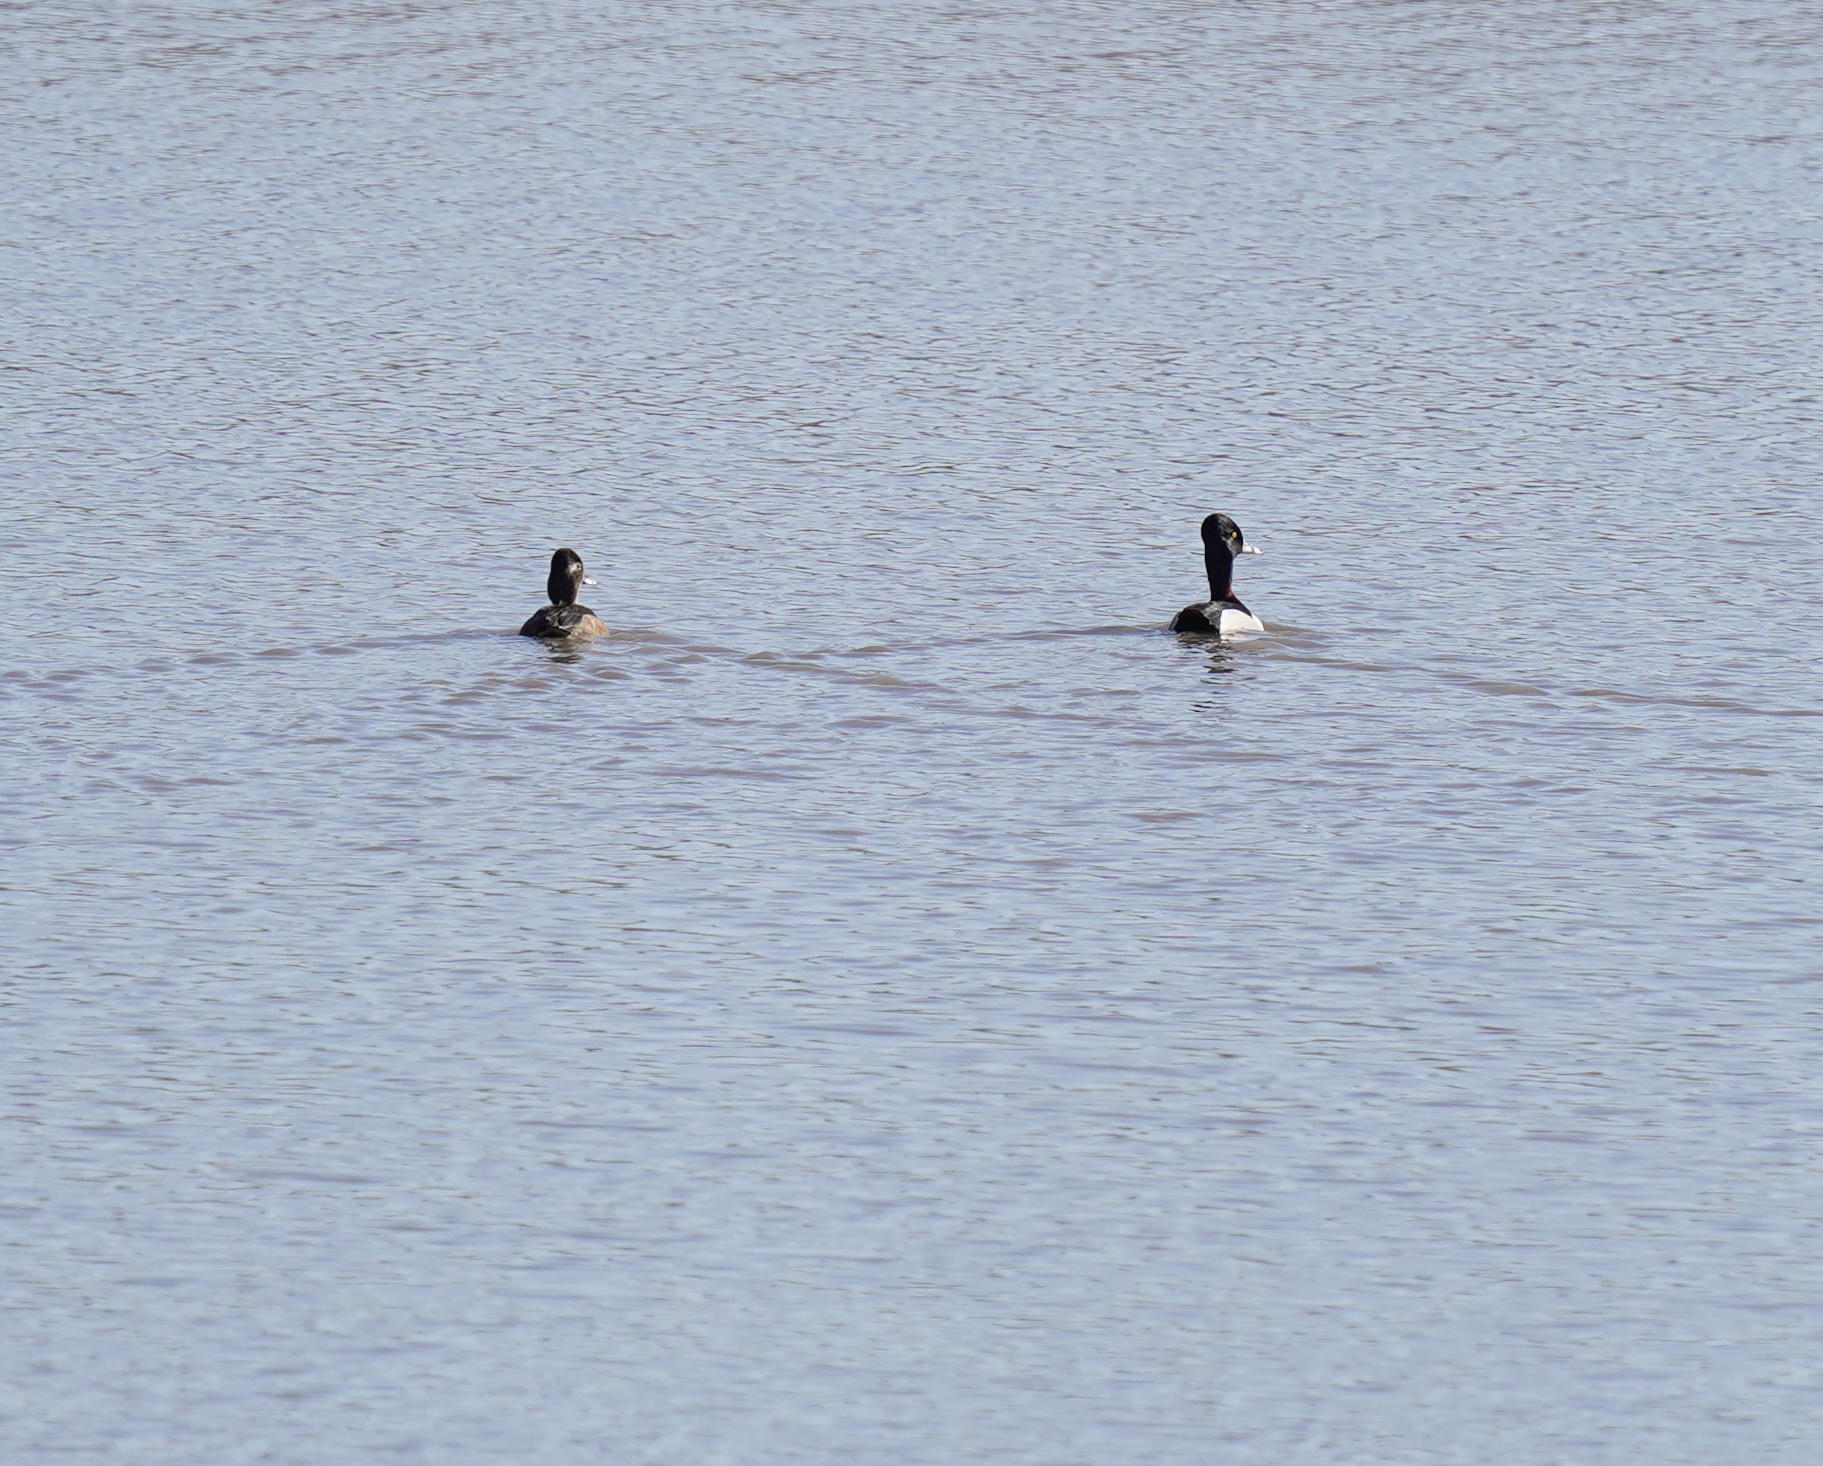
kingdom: Animalia
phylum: Chordata
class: Aves
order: Anseriformes
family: Anatidae
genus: Aythya
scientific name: Aythya collaris
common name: Ring-necked duck
